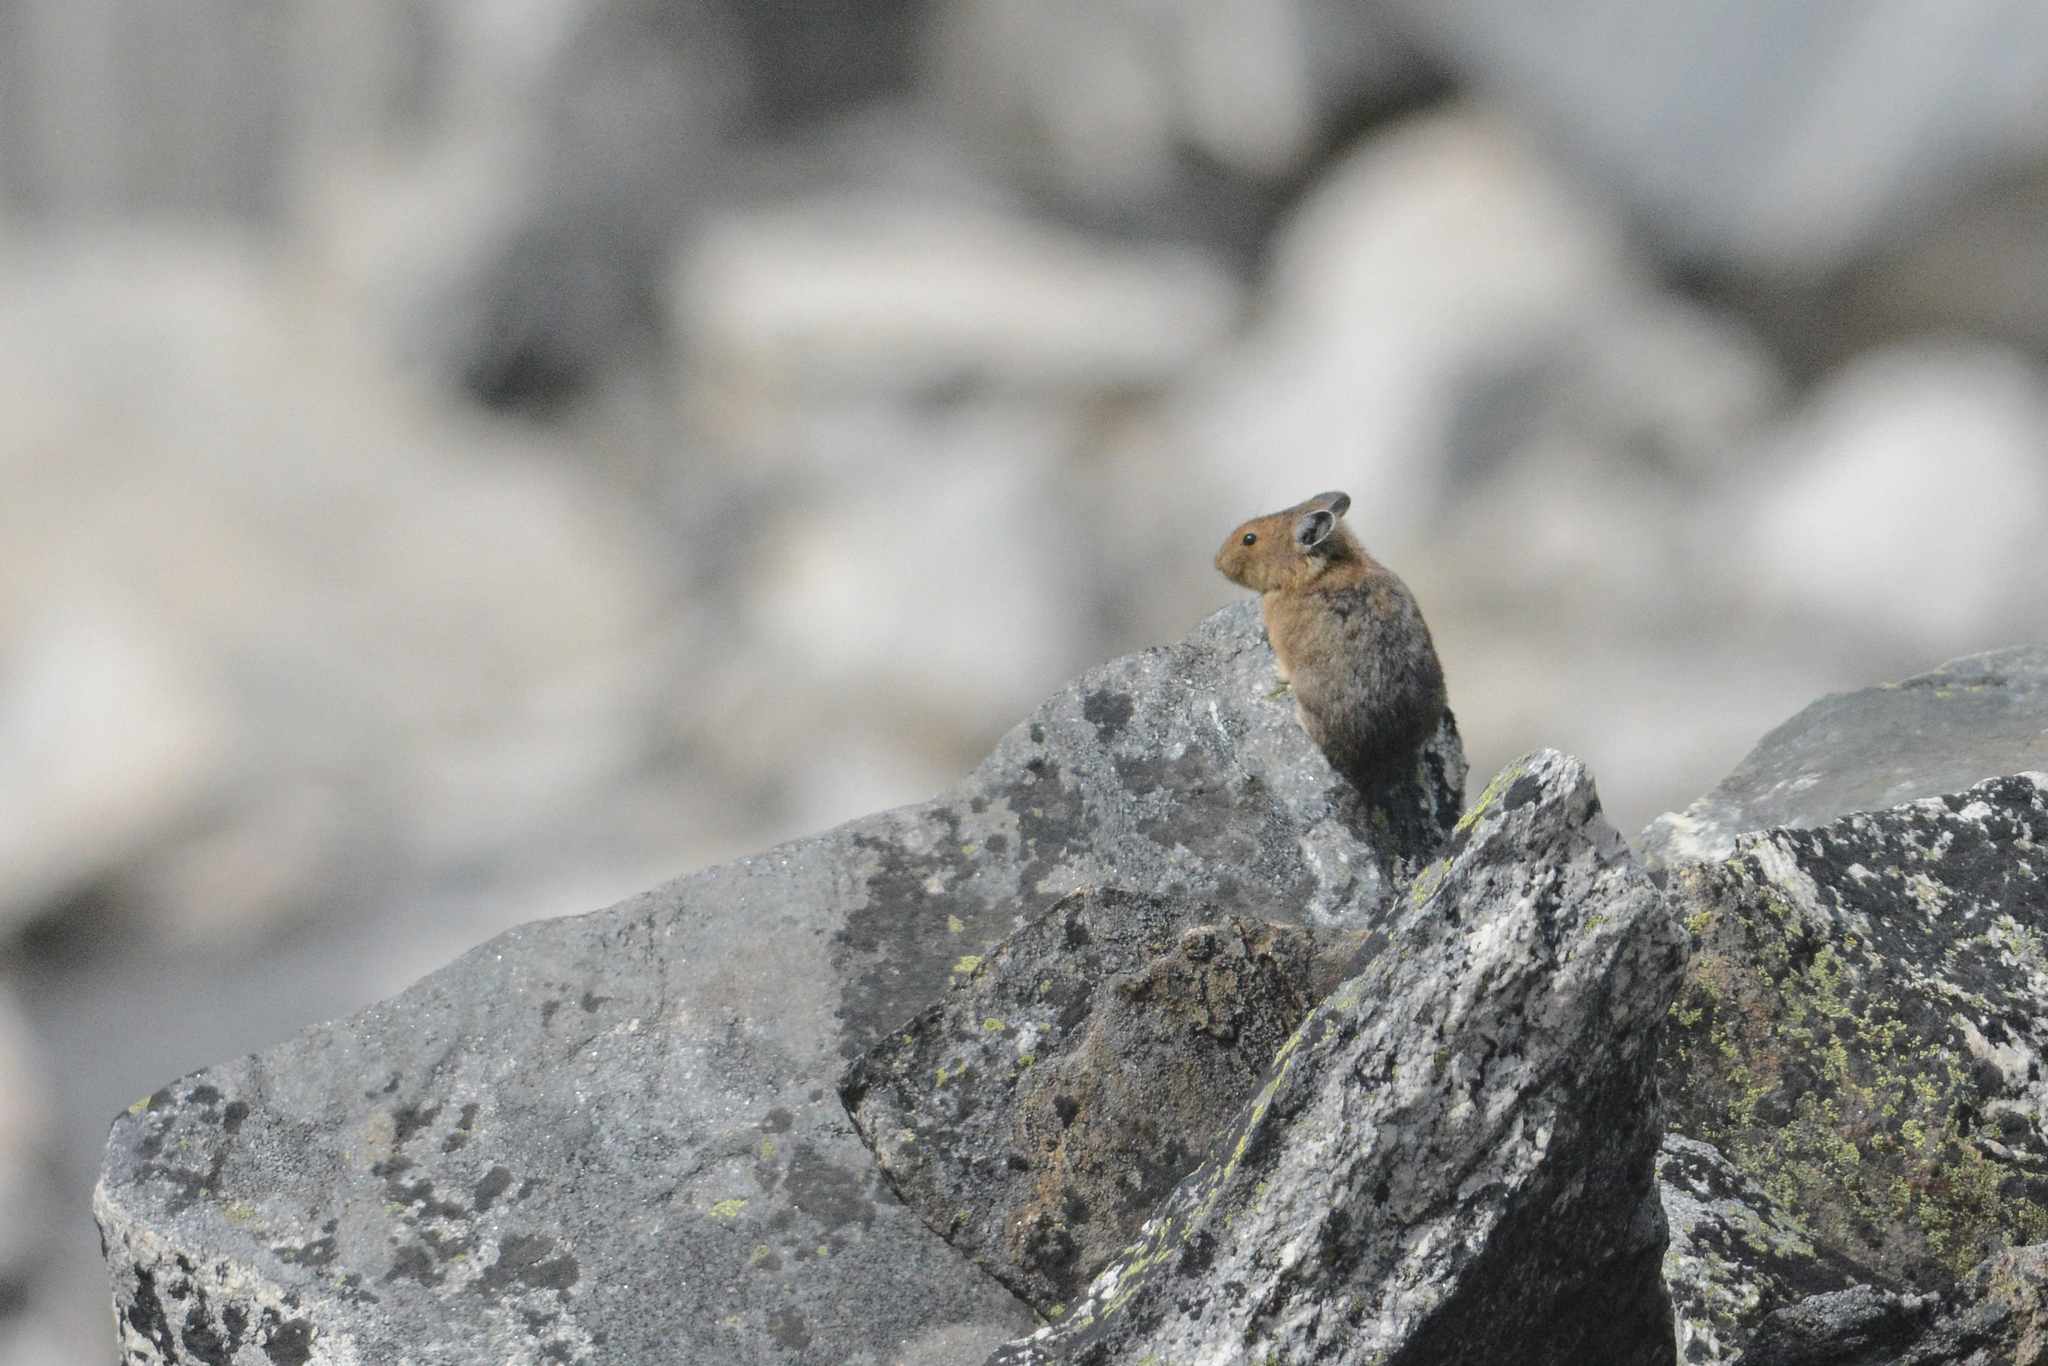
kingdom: Animalia
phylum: Chordata
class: Mammalia
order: Lagomorpha
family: Ochotonidae
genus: Ochotona
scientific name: Ochotona princeps
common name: American pika
